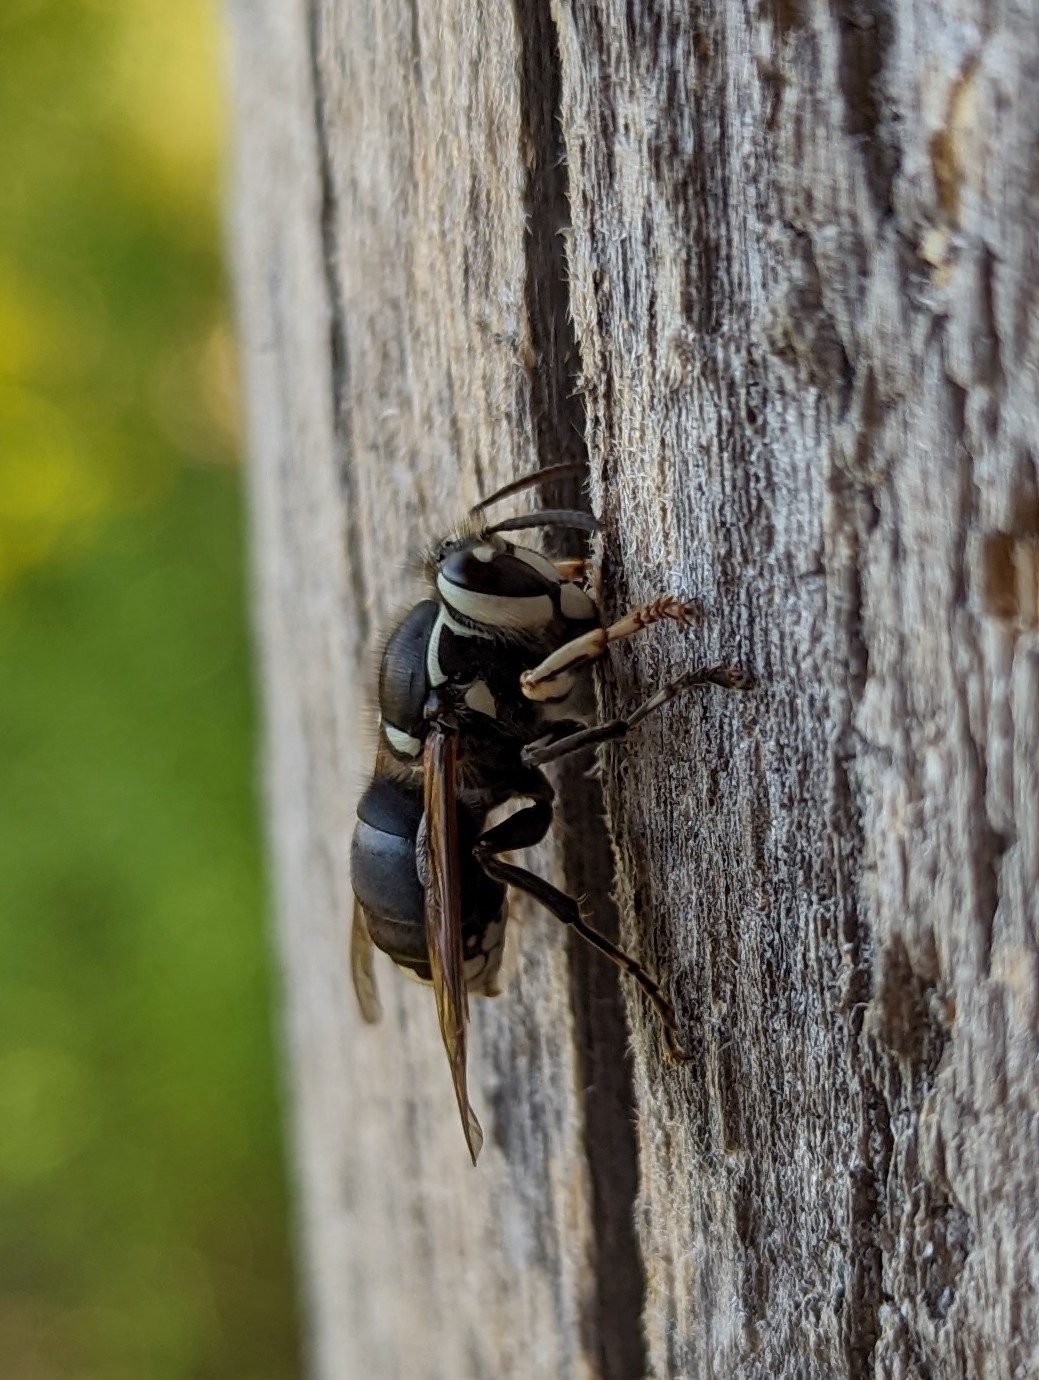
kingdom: Animalia
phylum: Arthropoda
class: Insecta
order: Hymenoptera
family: Vespidae
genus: Dolichovespula
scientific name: Dolichovespula maculata
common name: Bald-faced hornet
